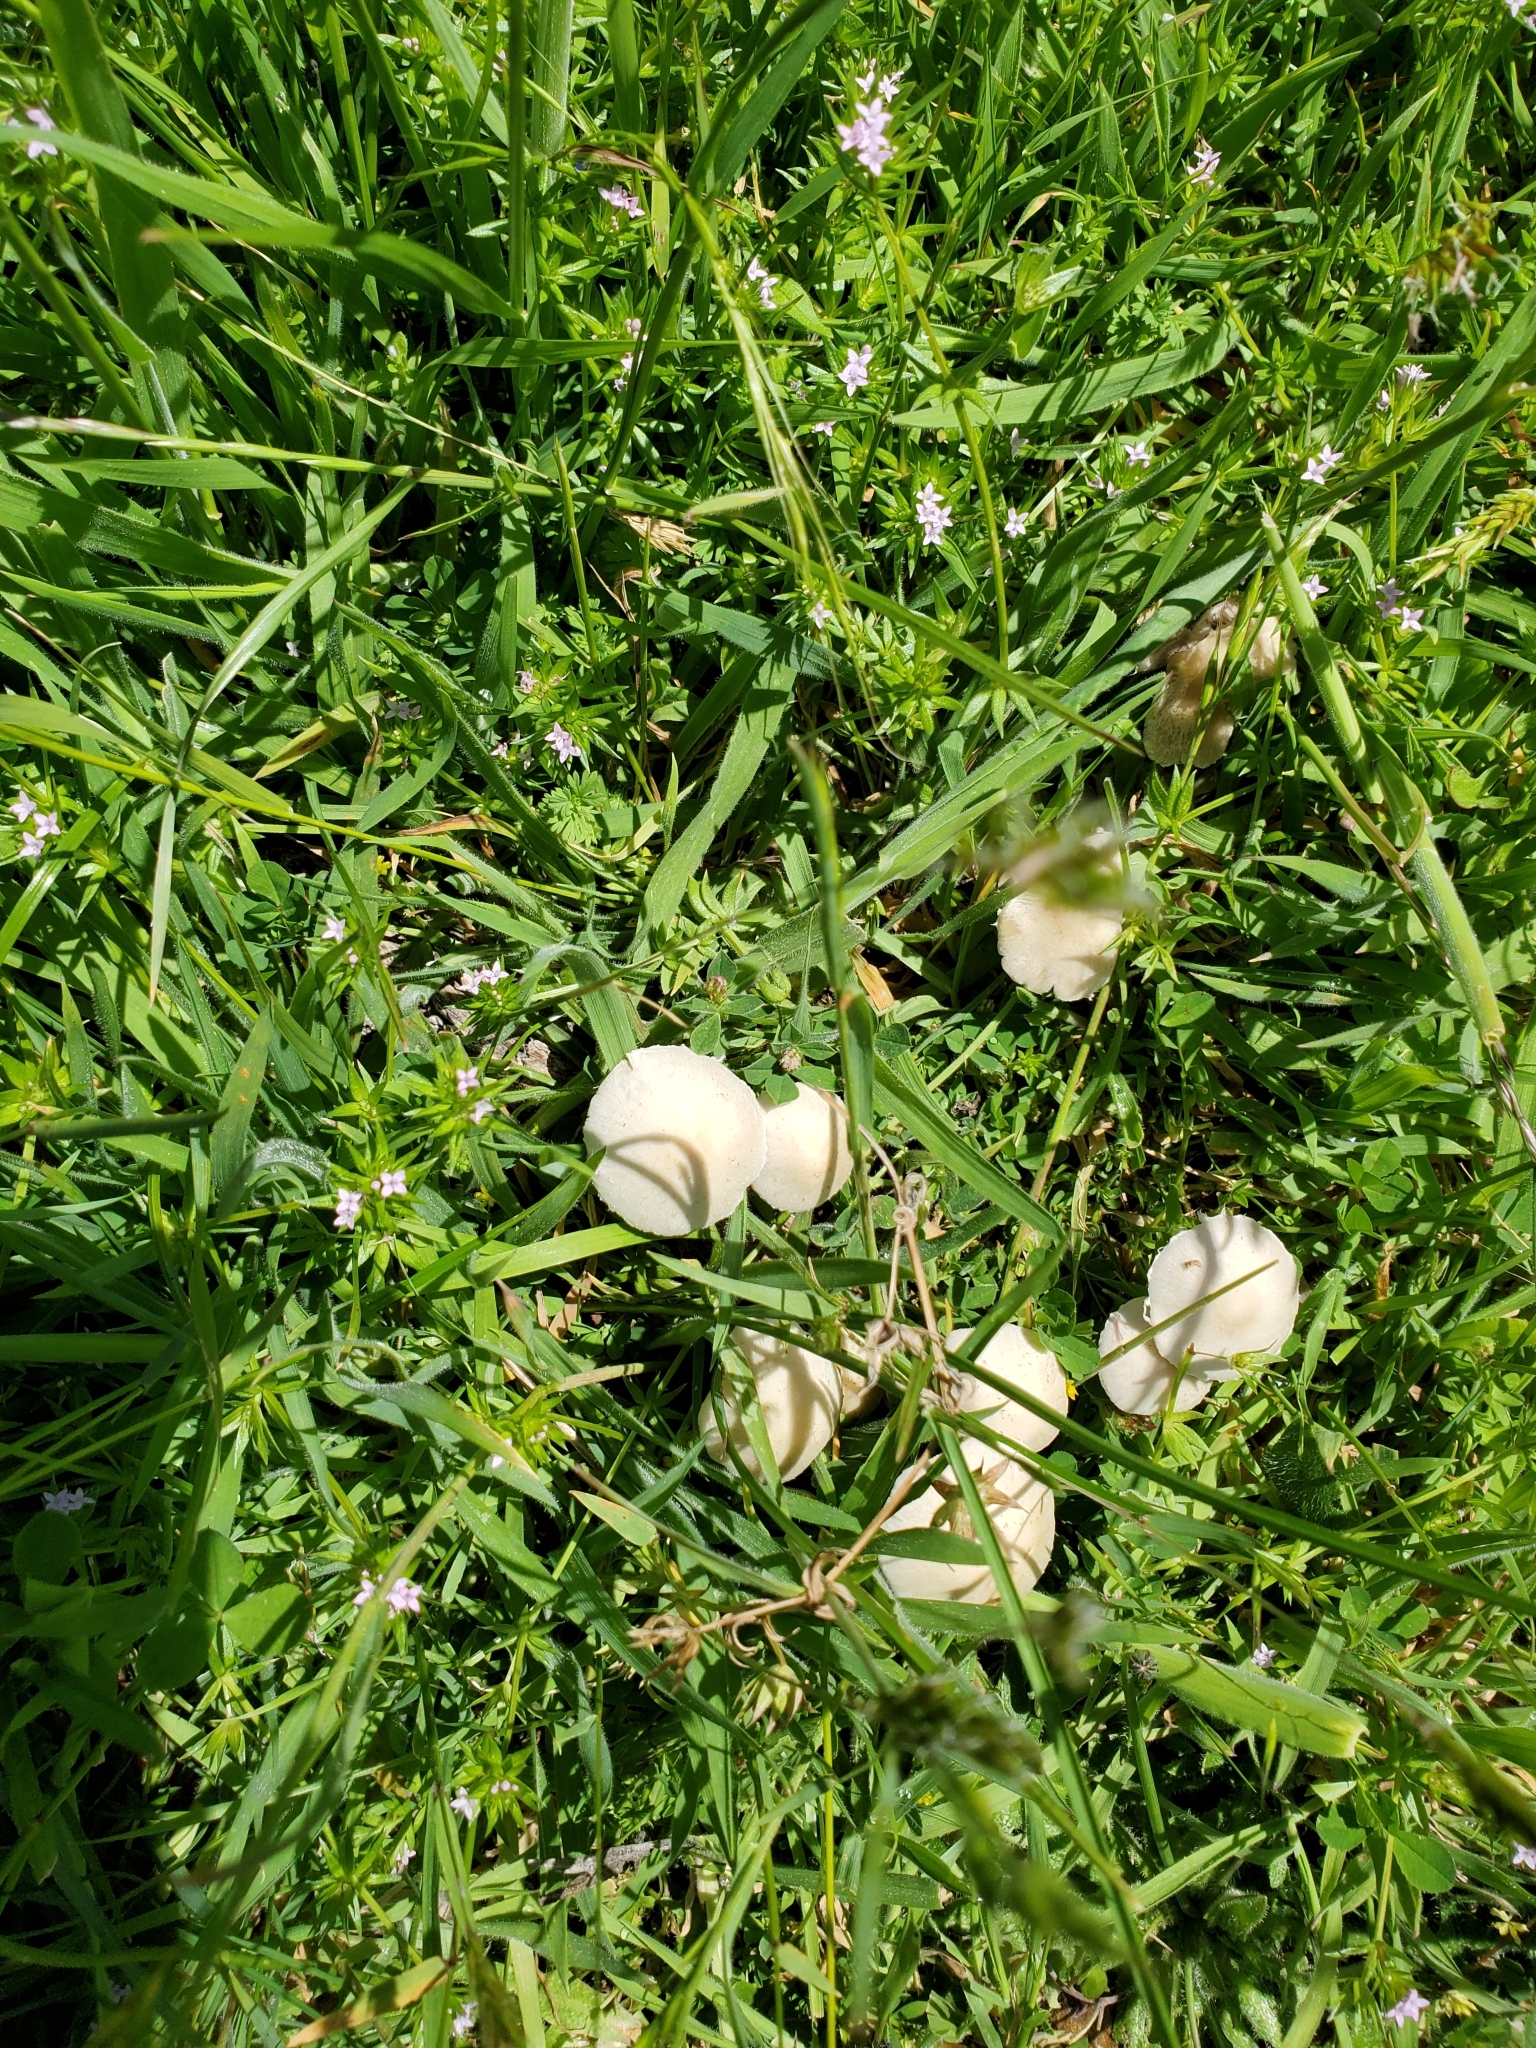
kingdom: Fungi
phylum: Basidiomycota
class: Agaricomycetes
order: Agaricales
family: Psathyrellaceae
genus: Candolleomyces
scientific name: Candolleomyces candolleanus
